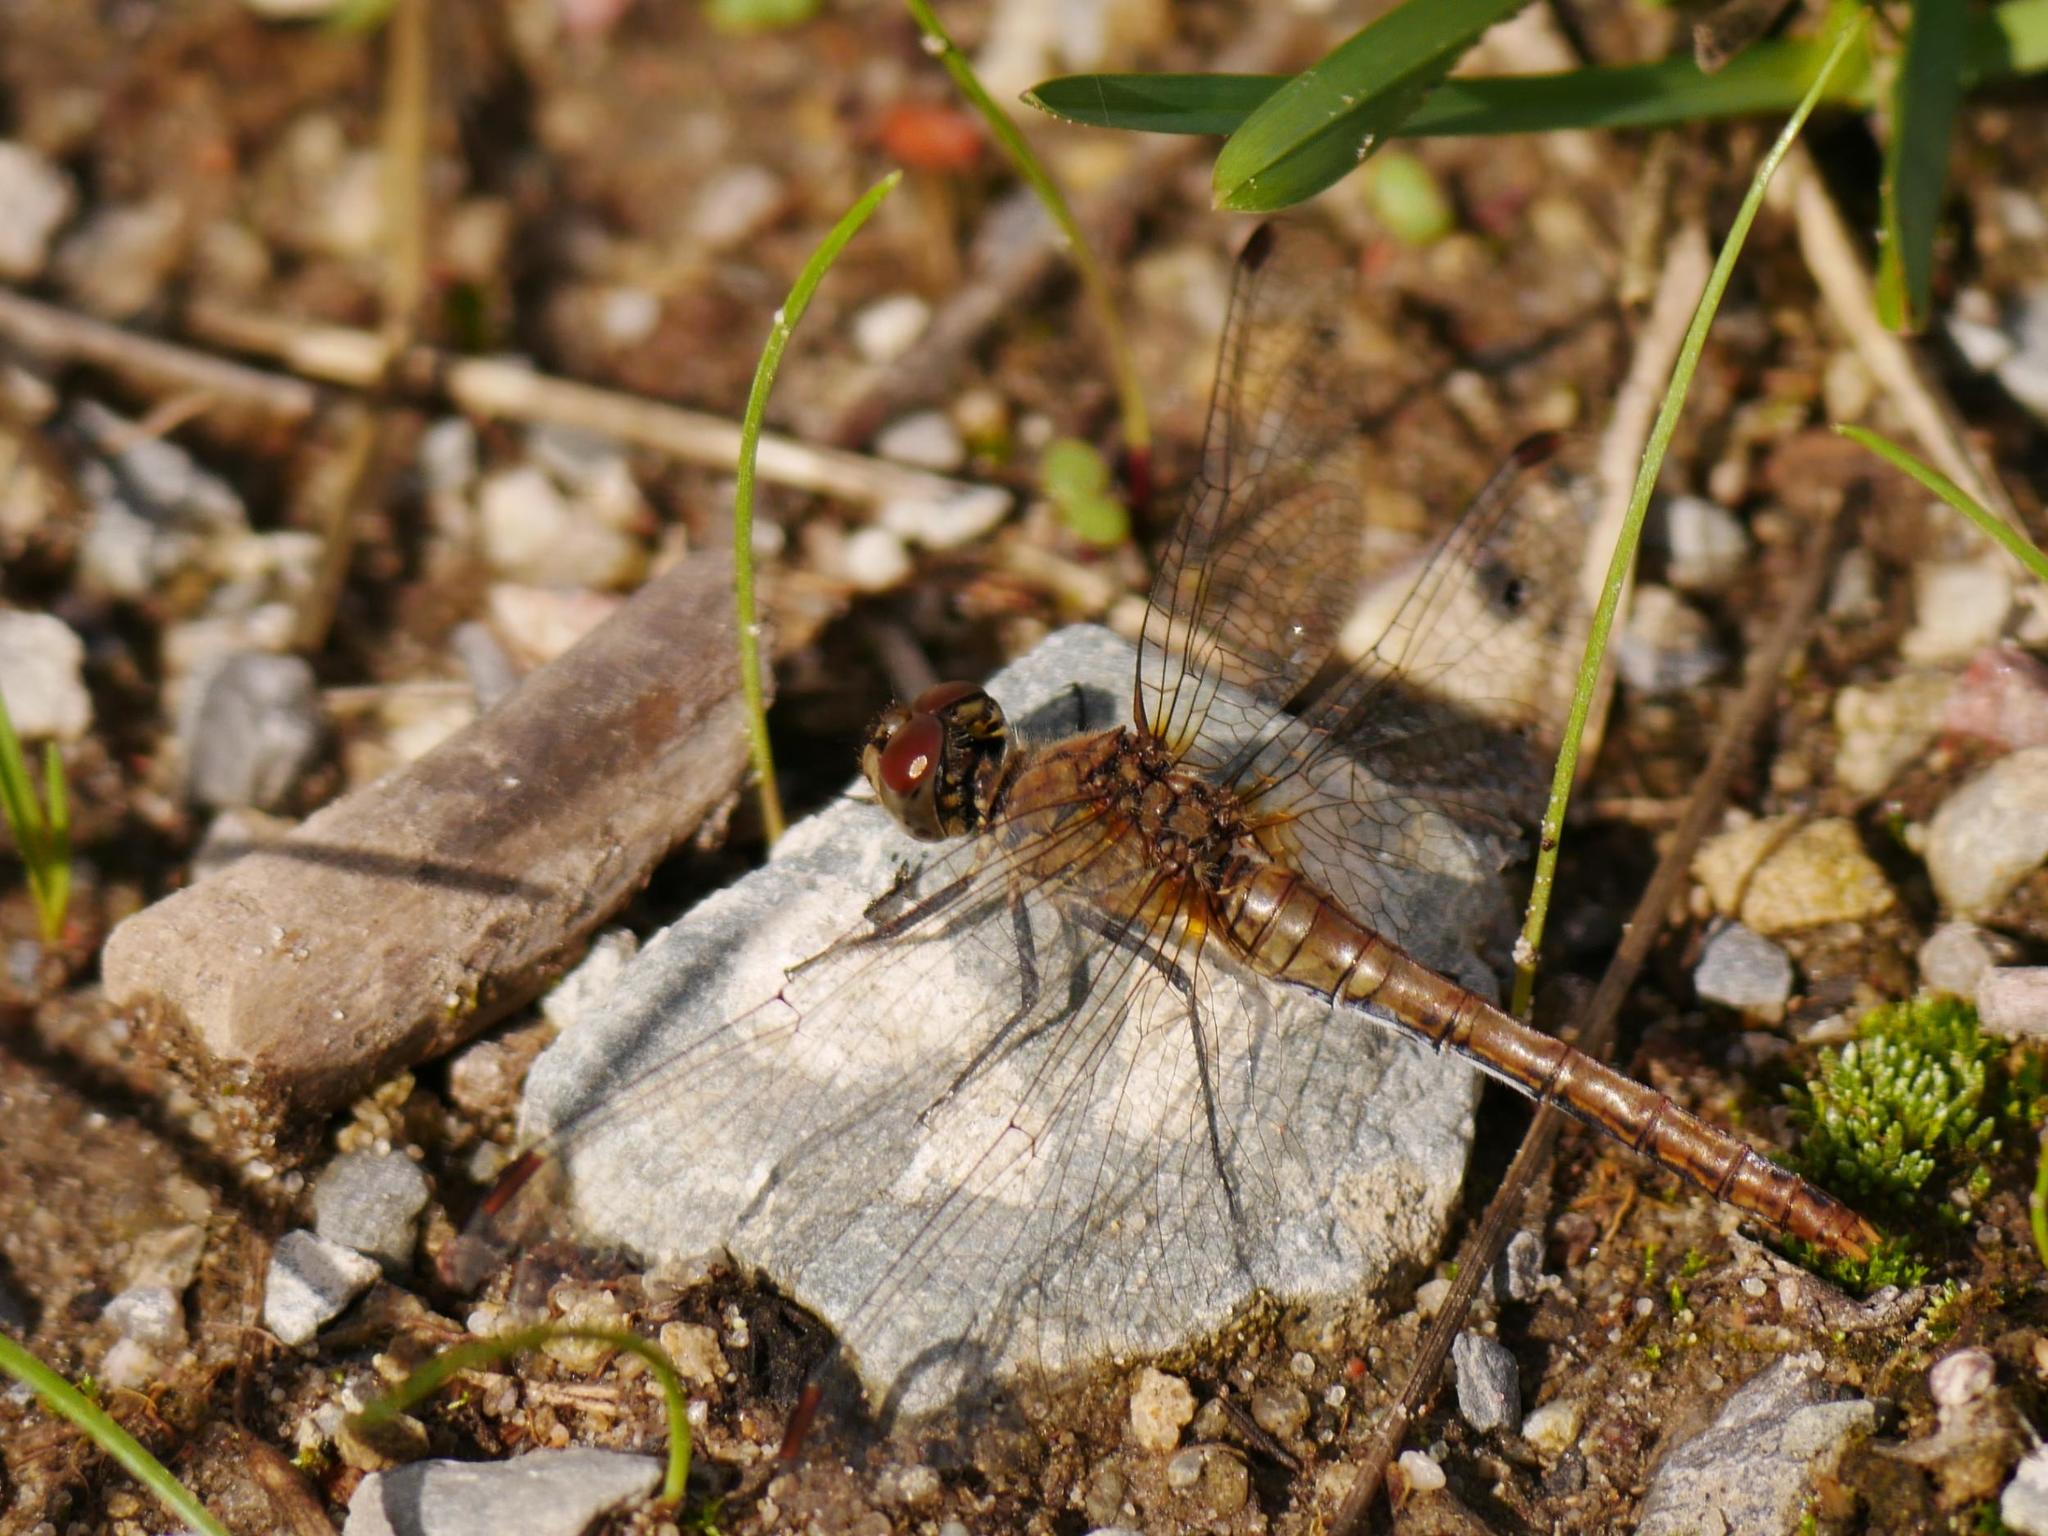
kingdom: Animalia
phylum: Arthropoda
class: Insecta
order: Odonata
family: Libellulidae
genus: Sympetrum
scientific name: Sympetrum sanguineum
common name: Ruddy darter
